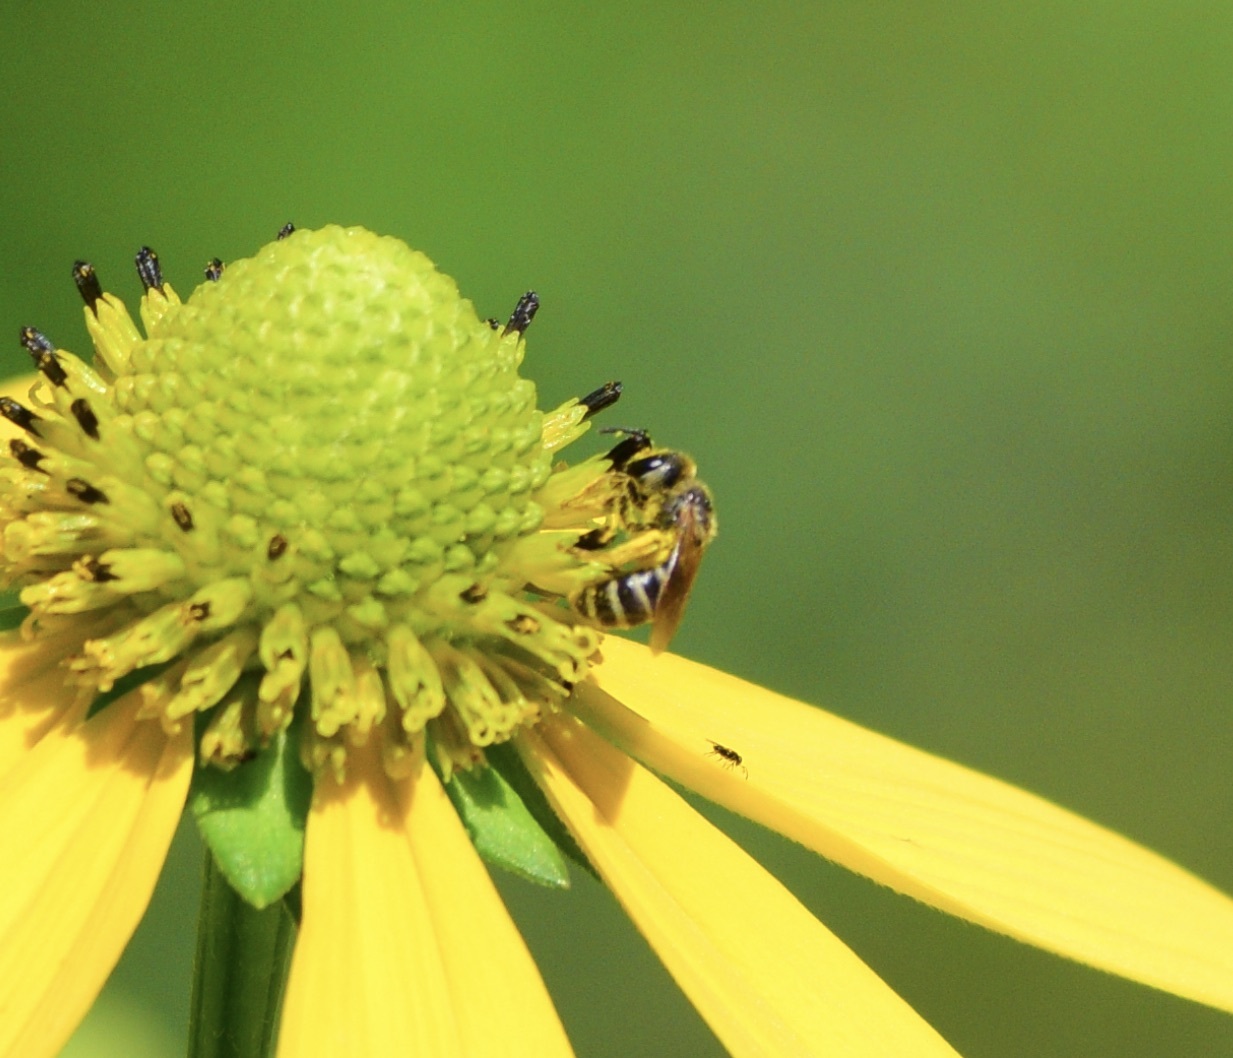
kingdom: Animalia
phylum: Arthropoda
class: Insecta
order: Hymenoptera
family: Halictidae
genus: Halictus
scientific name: Halictus ligatus
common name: Ligated furrow bee
